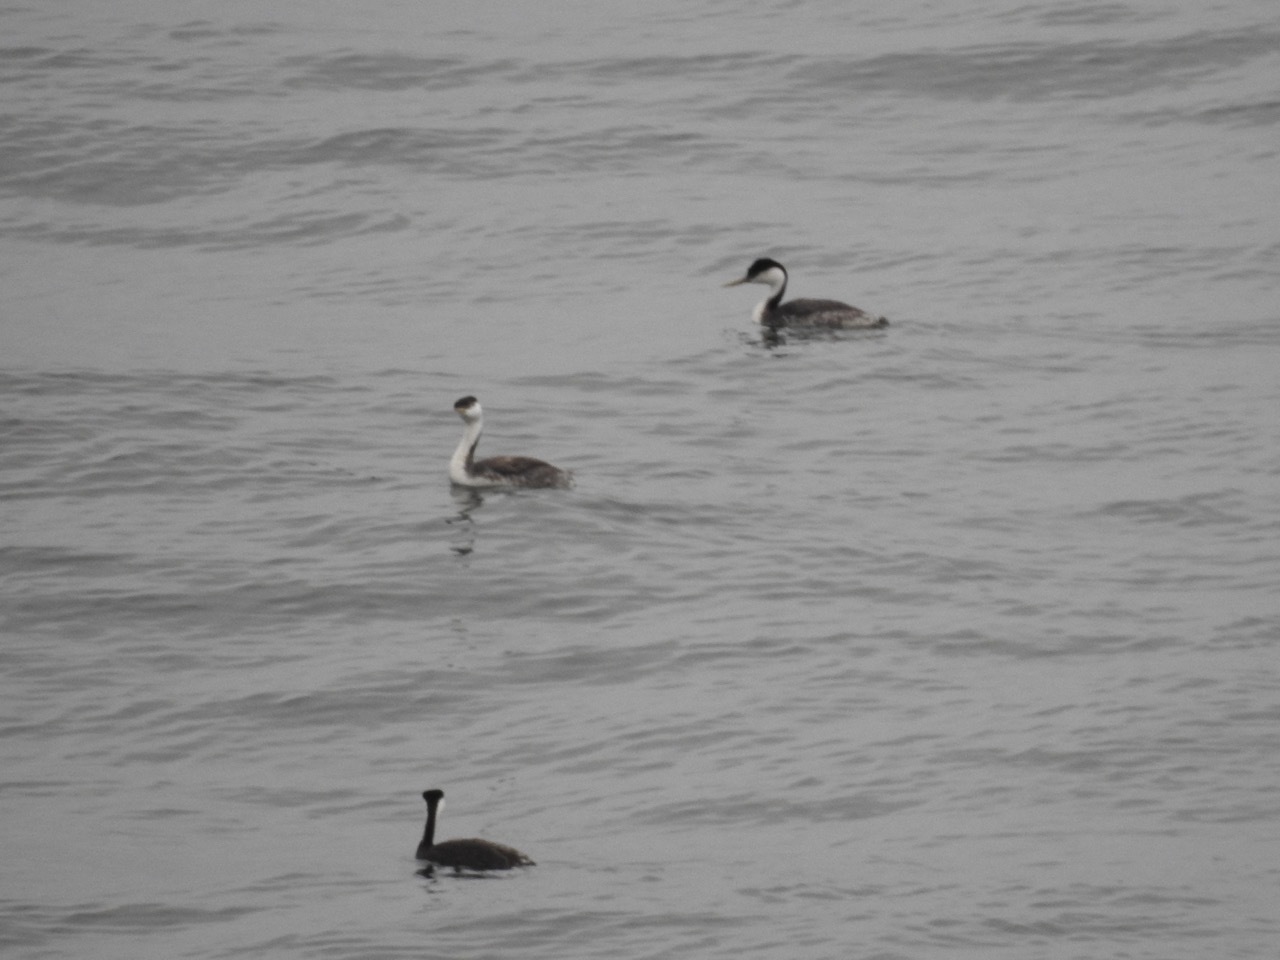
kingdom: Animalia
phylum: Chordata
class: Aves
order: Podicipediformes
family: Podicipedidae
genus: Aechmophorus
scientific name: Aechmophorus occidentalis
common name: Western grebe
